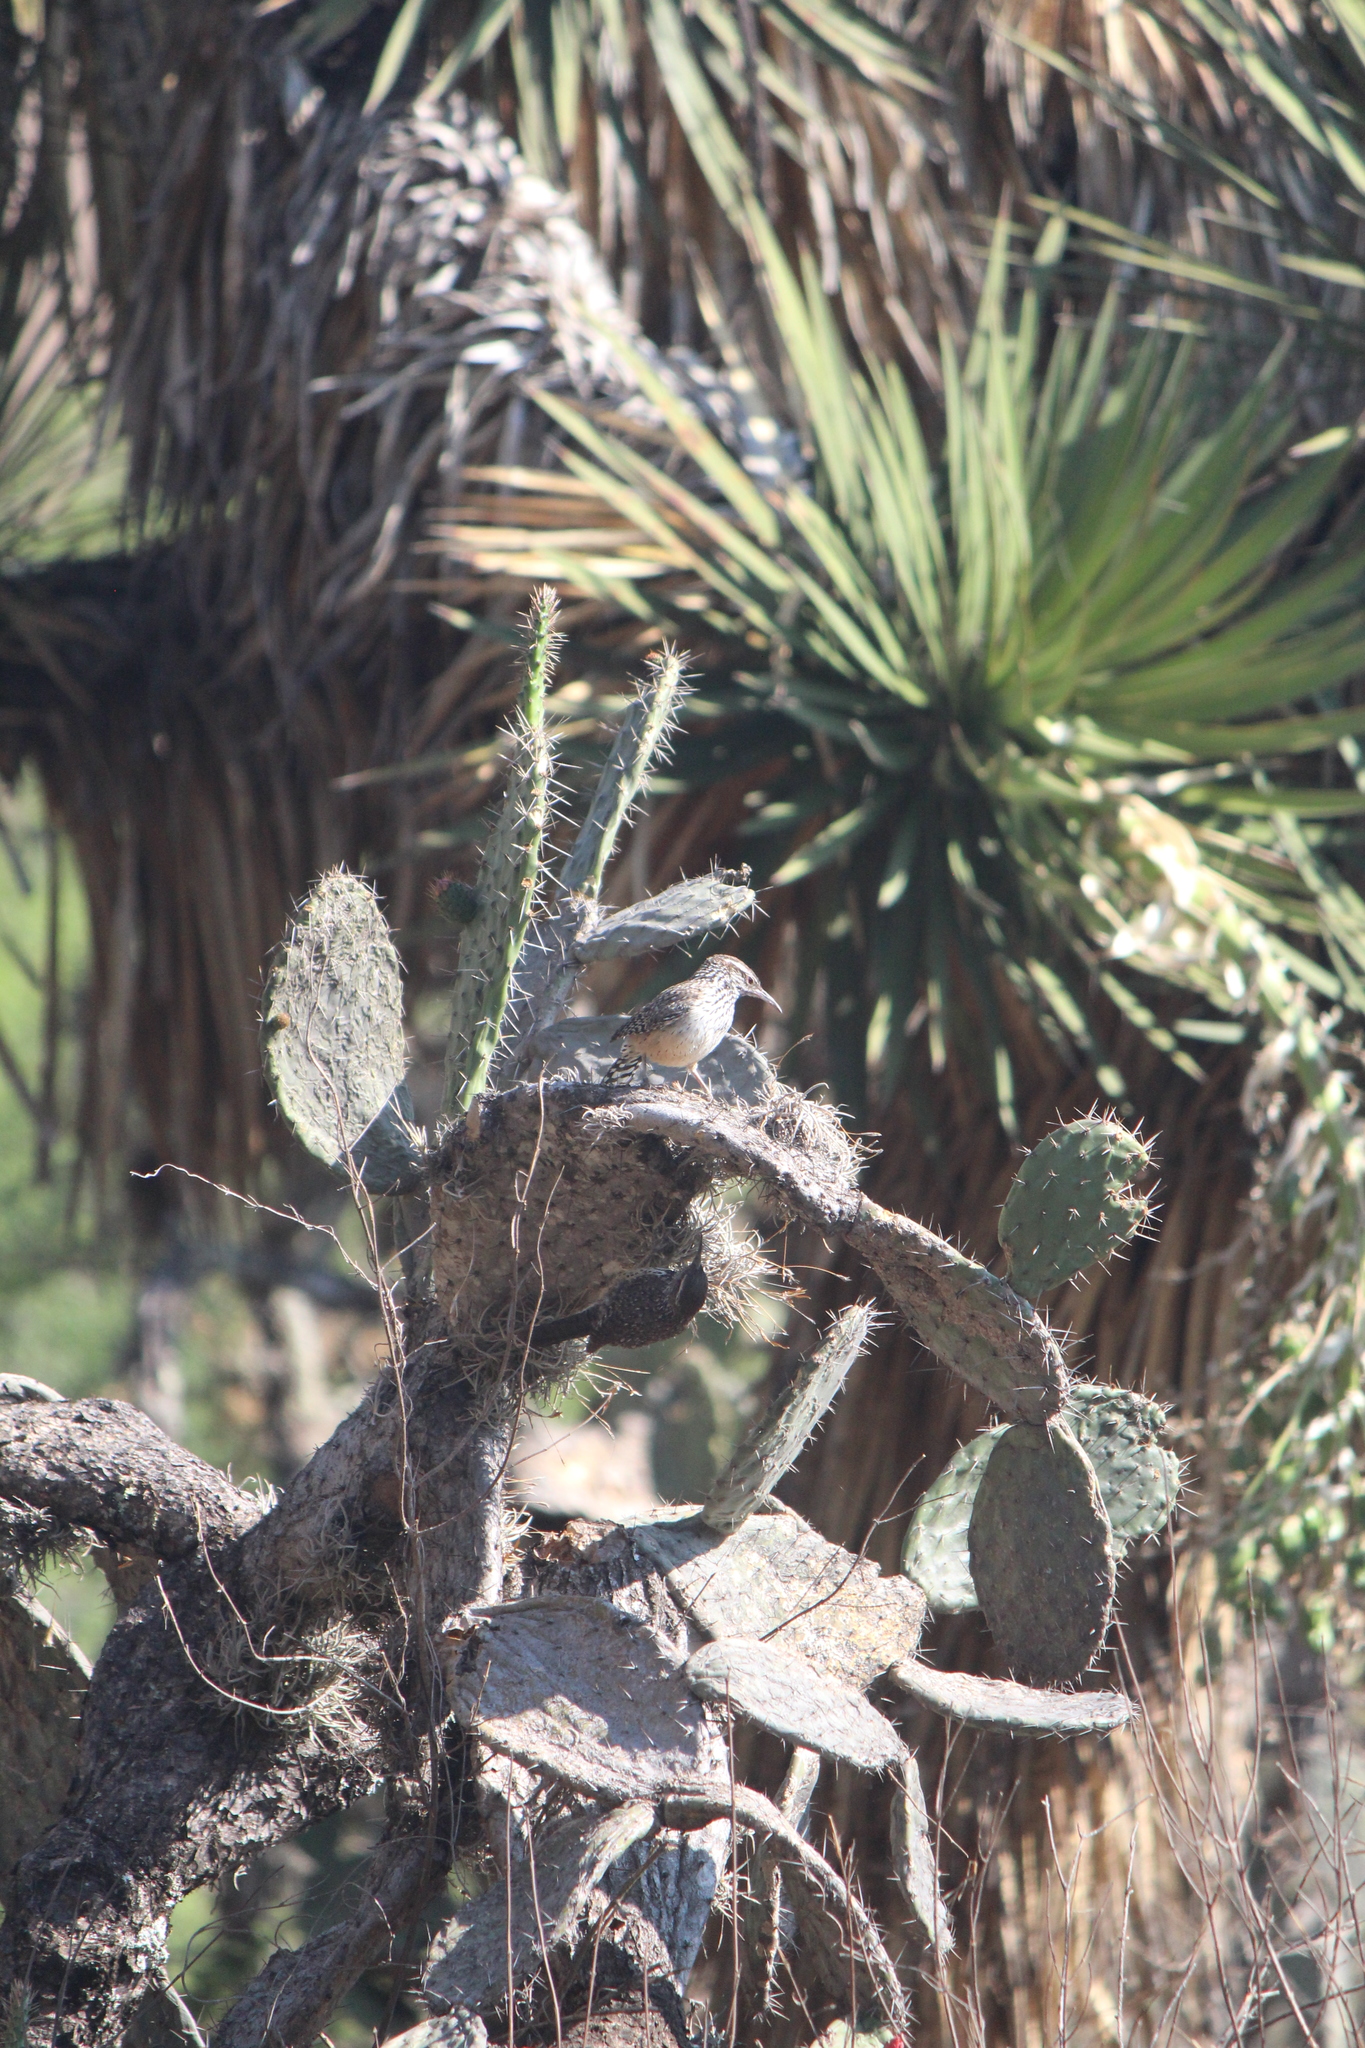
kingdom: Animalia
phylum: Chordata
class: Aves
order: Passeriformes
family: Troglodytidae
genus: Campylorhynchus
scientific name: Campylorhynchus brunneicapillus
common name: Cactus wren
